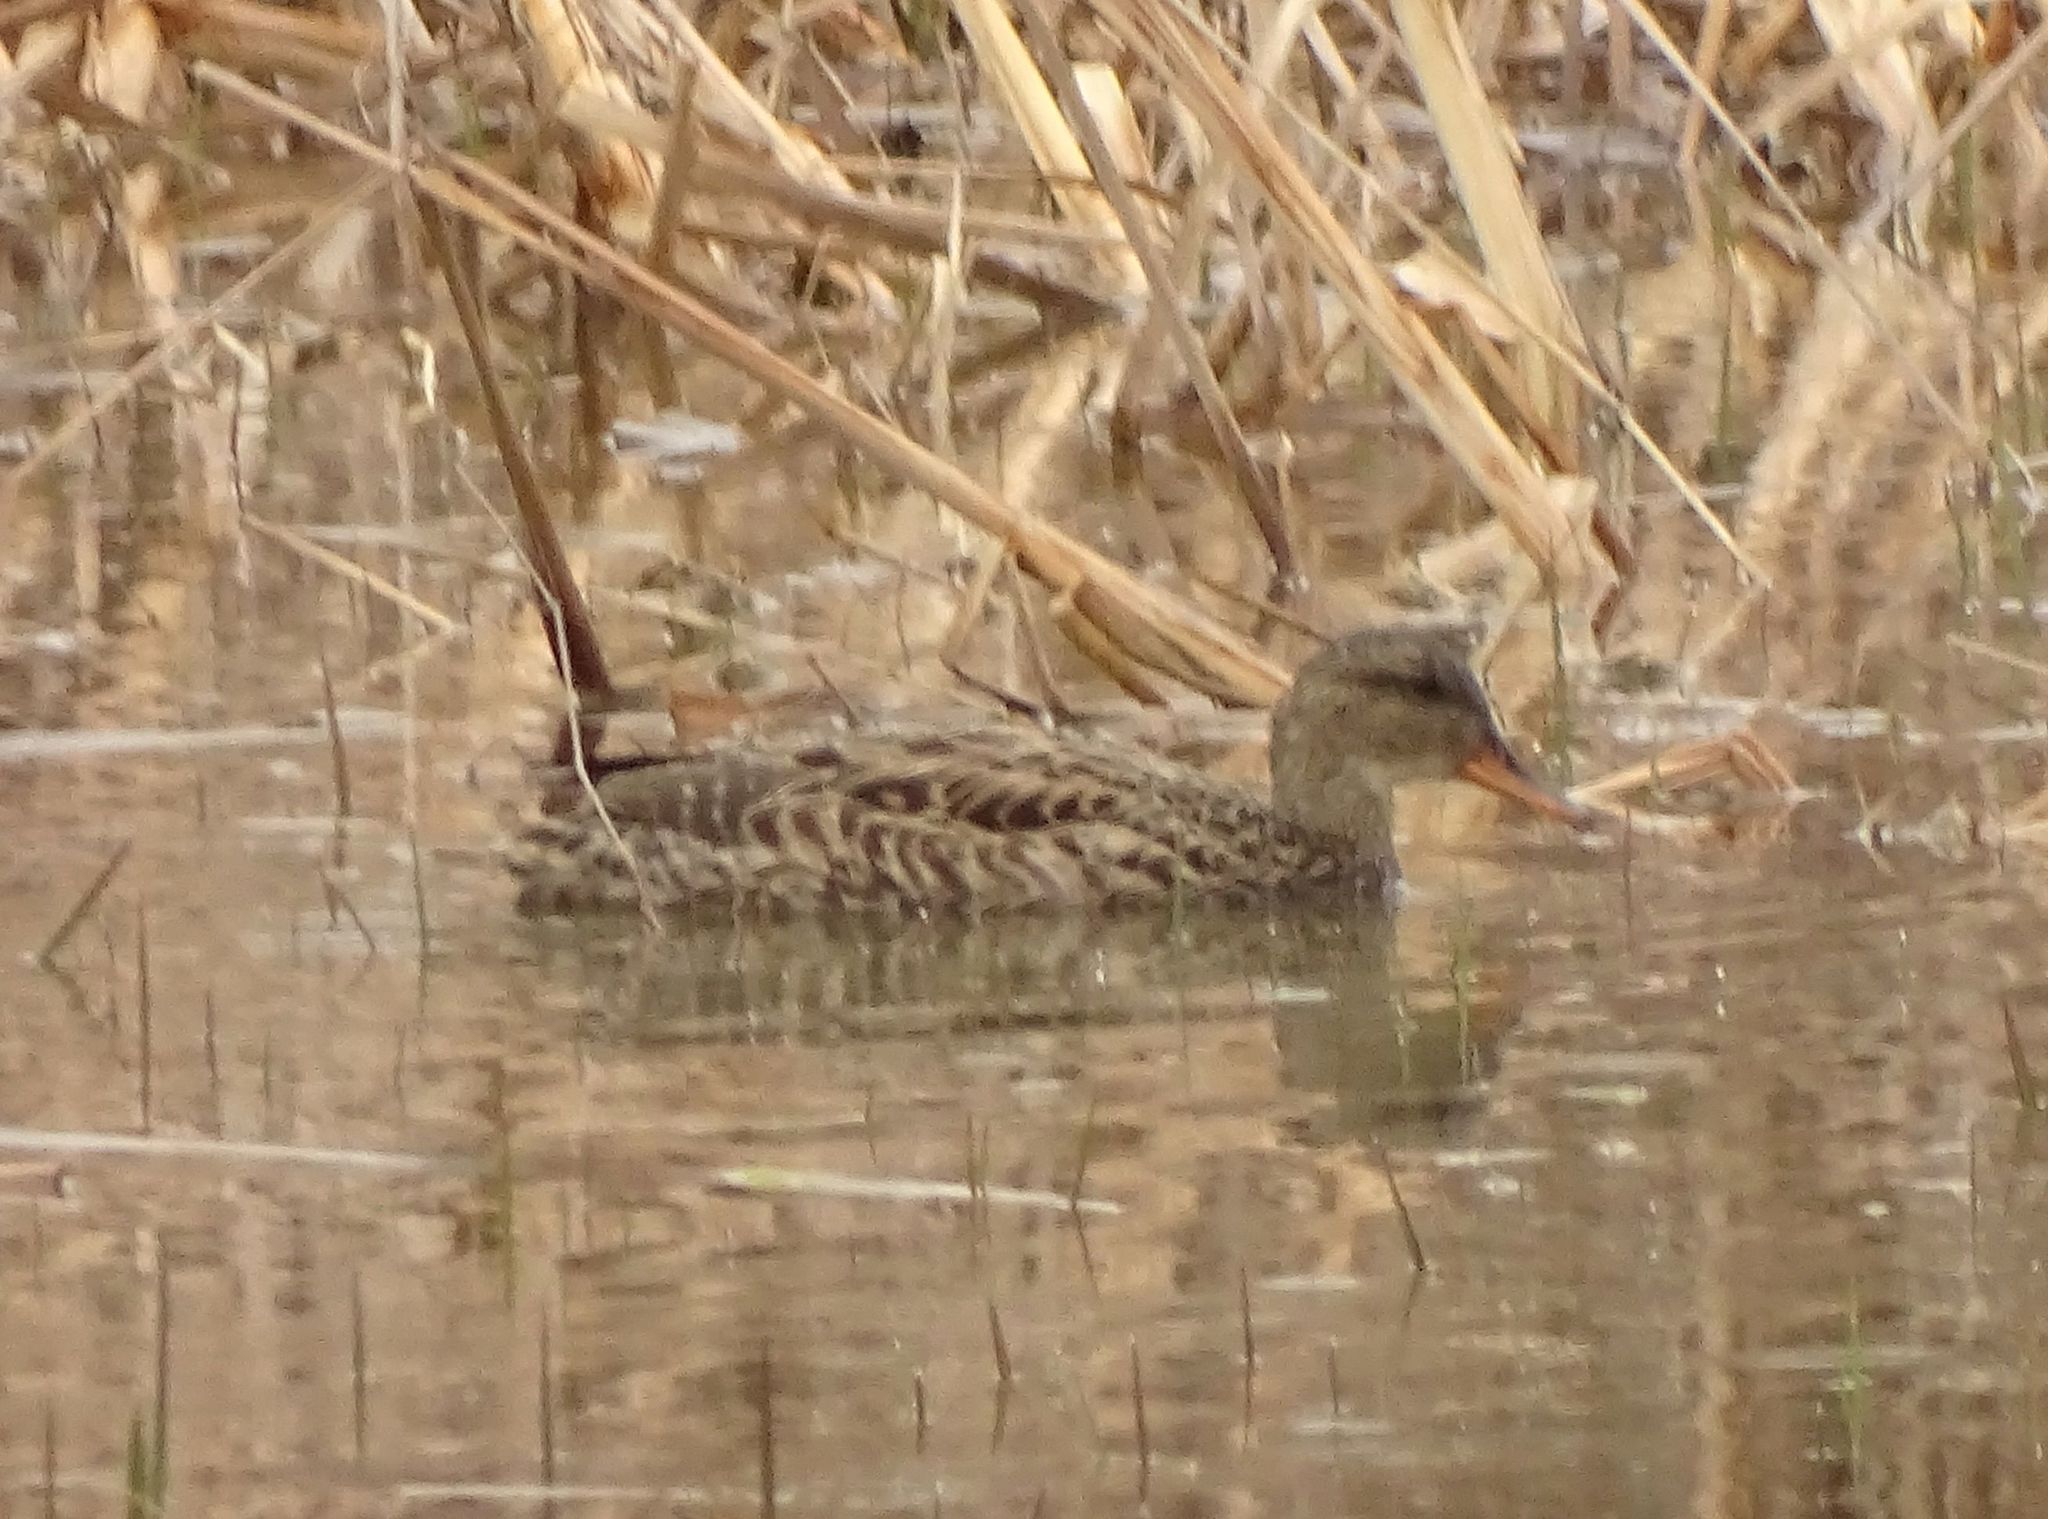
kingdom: Animalia
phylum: Chordata
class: Aves
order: Anseriformes
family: Anatidae
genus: Mareca
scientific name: Mareca strepera
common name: Gadwall
